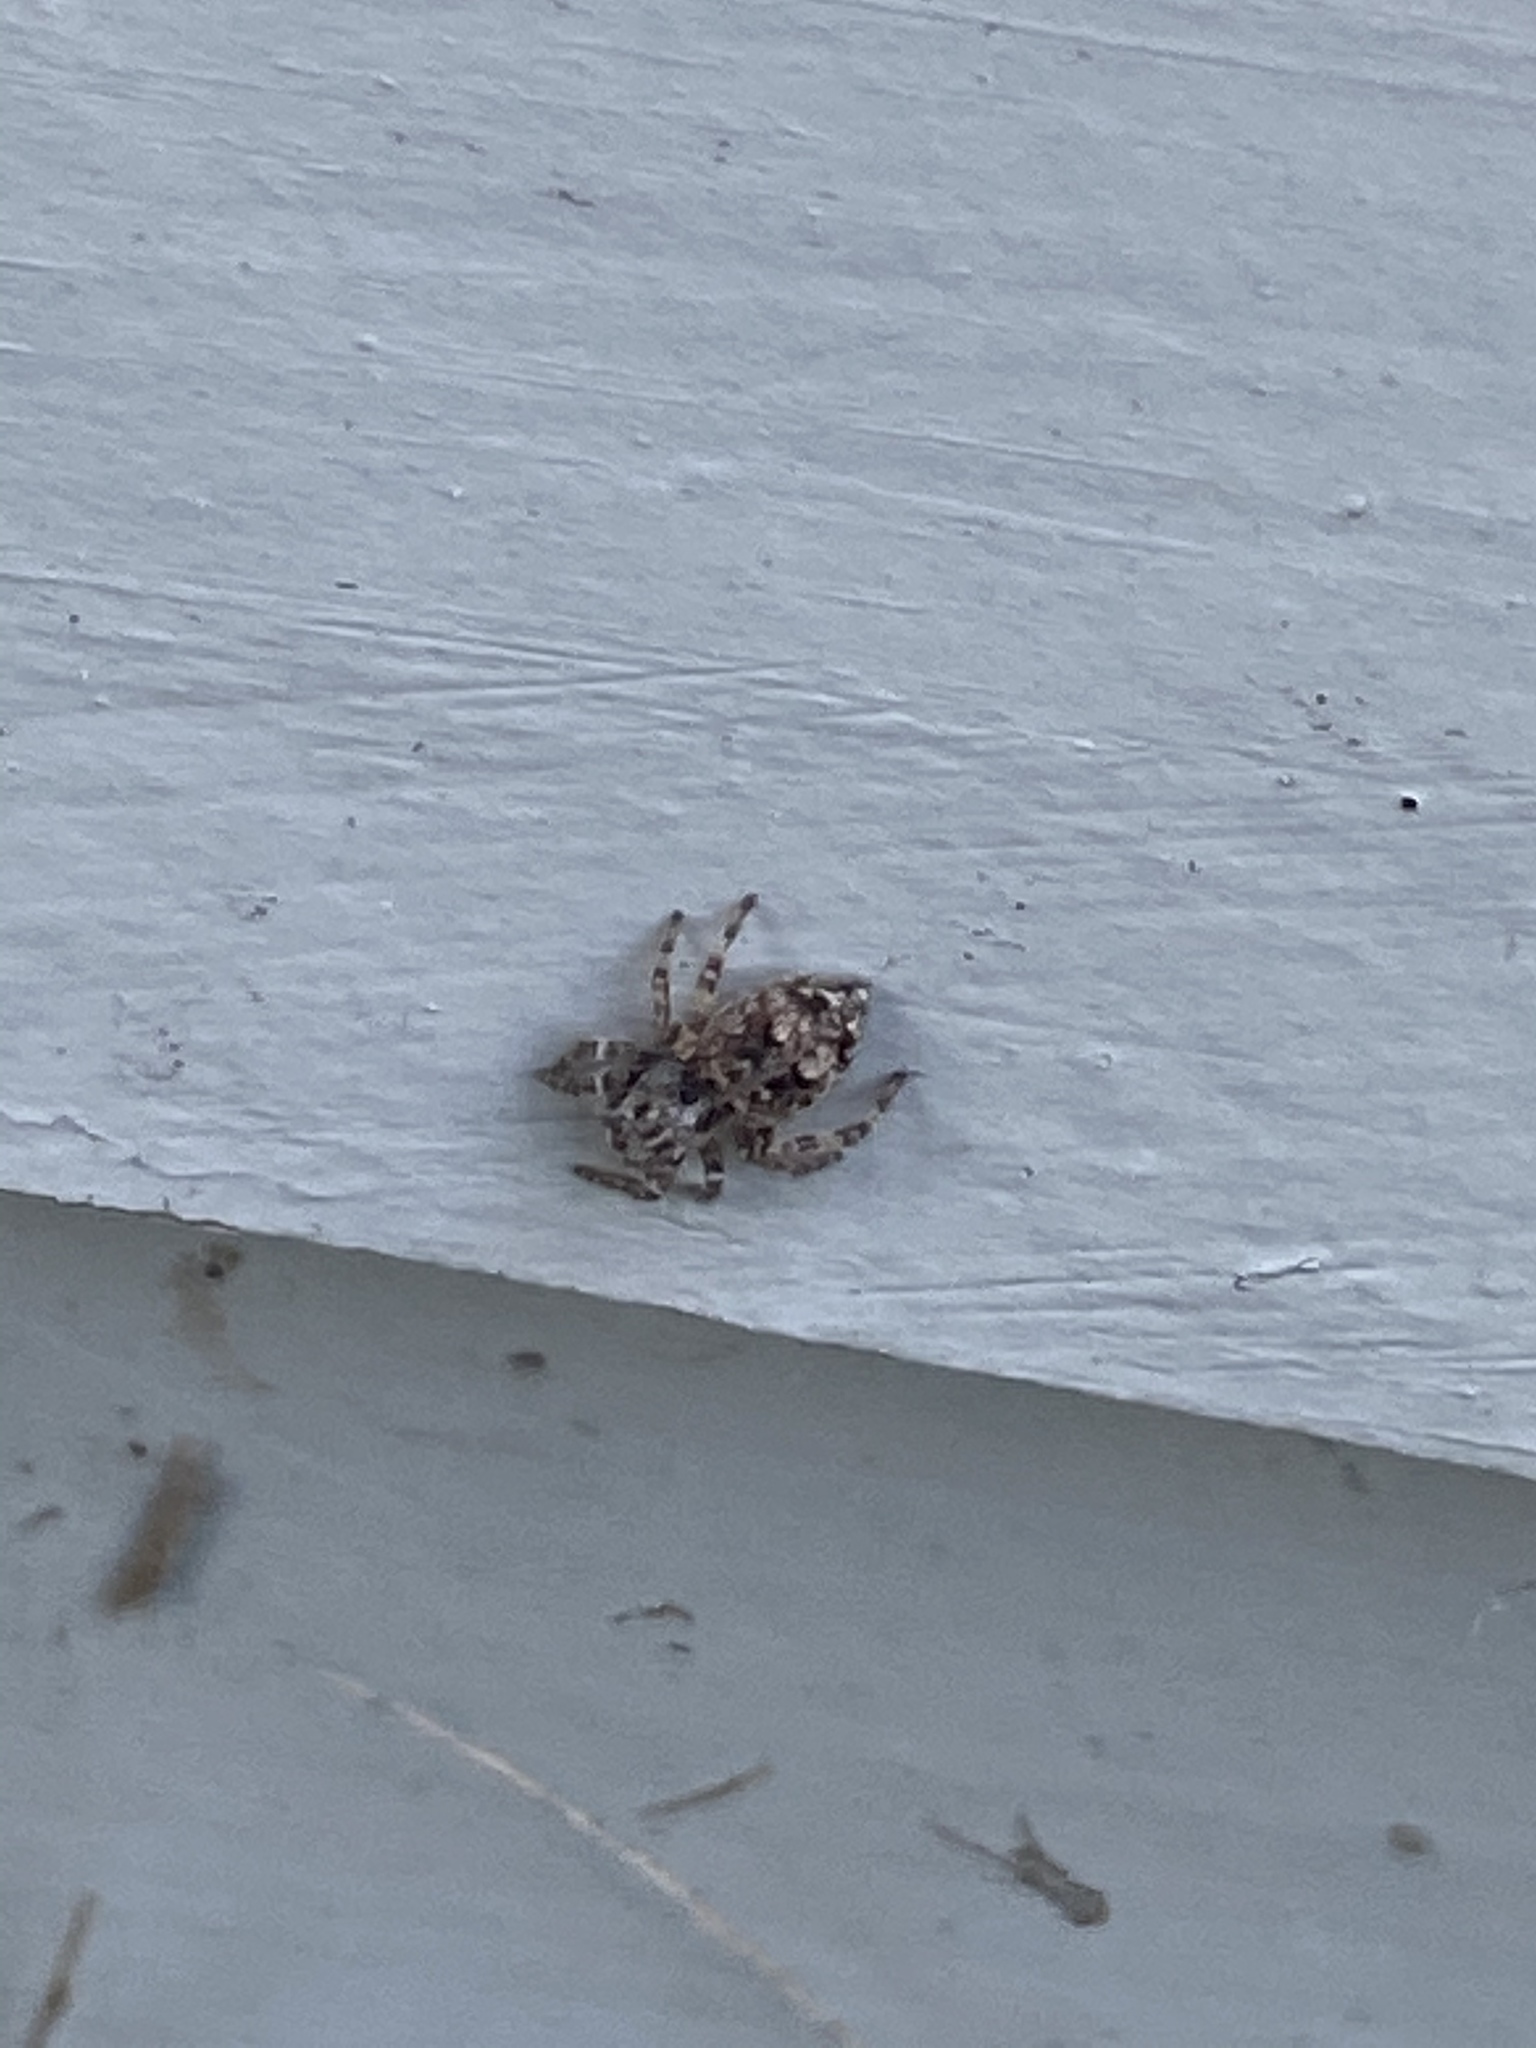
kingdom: Animalia
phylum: Arthropoda
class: Arachnida
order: Araneae
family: Salticidae
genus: Attulus
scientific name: Attulus fasciger
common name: Asiatic wall jumping spider
